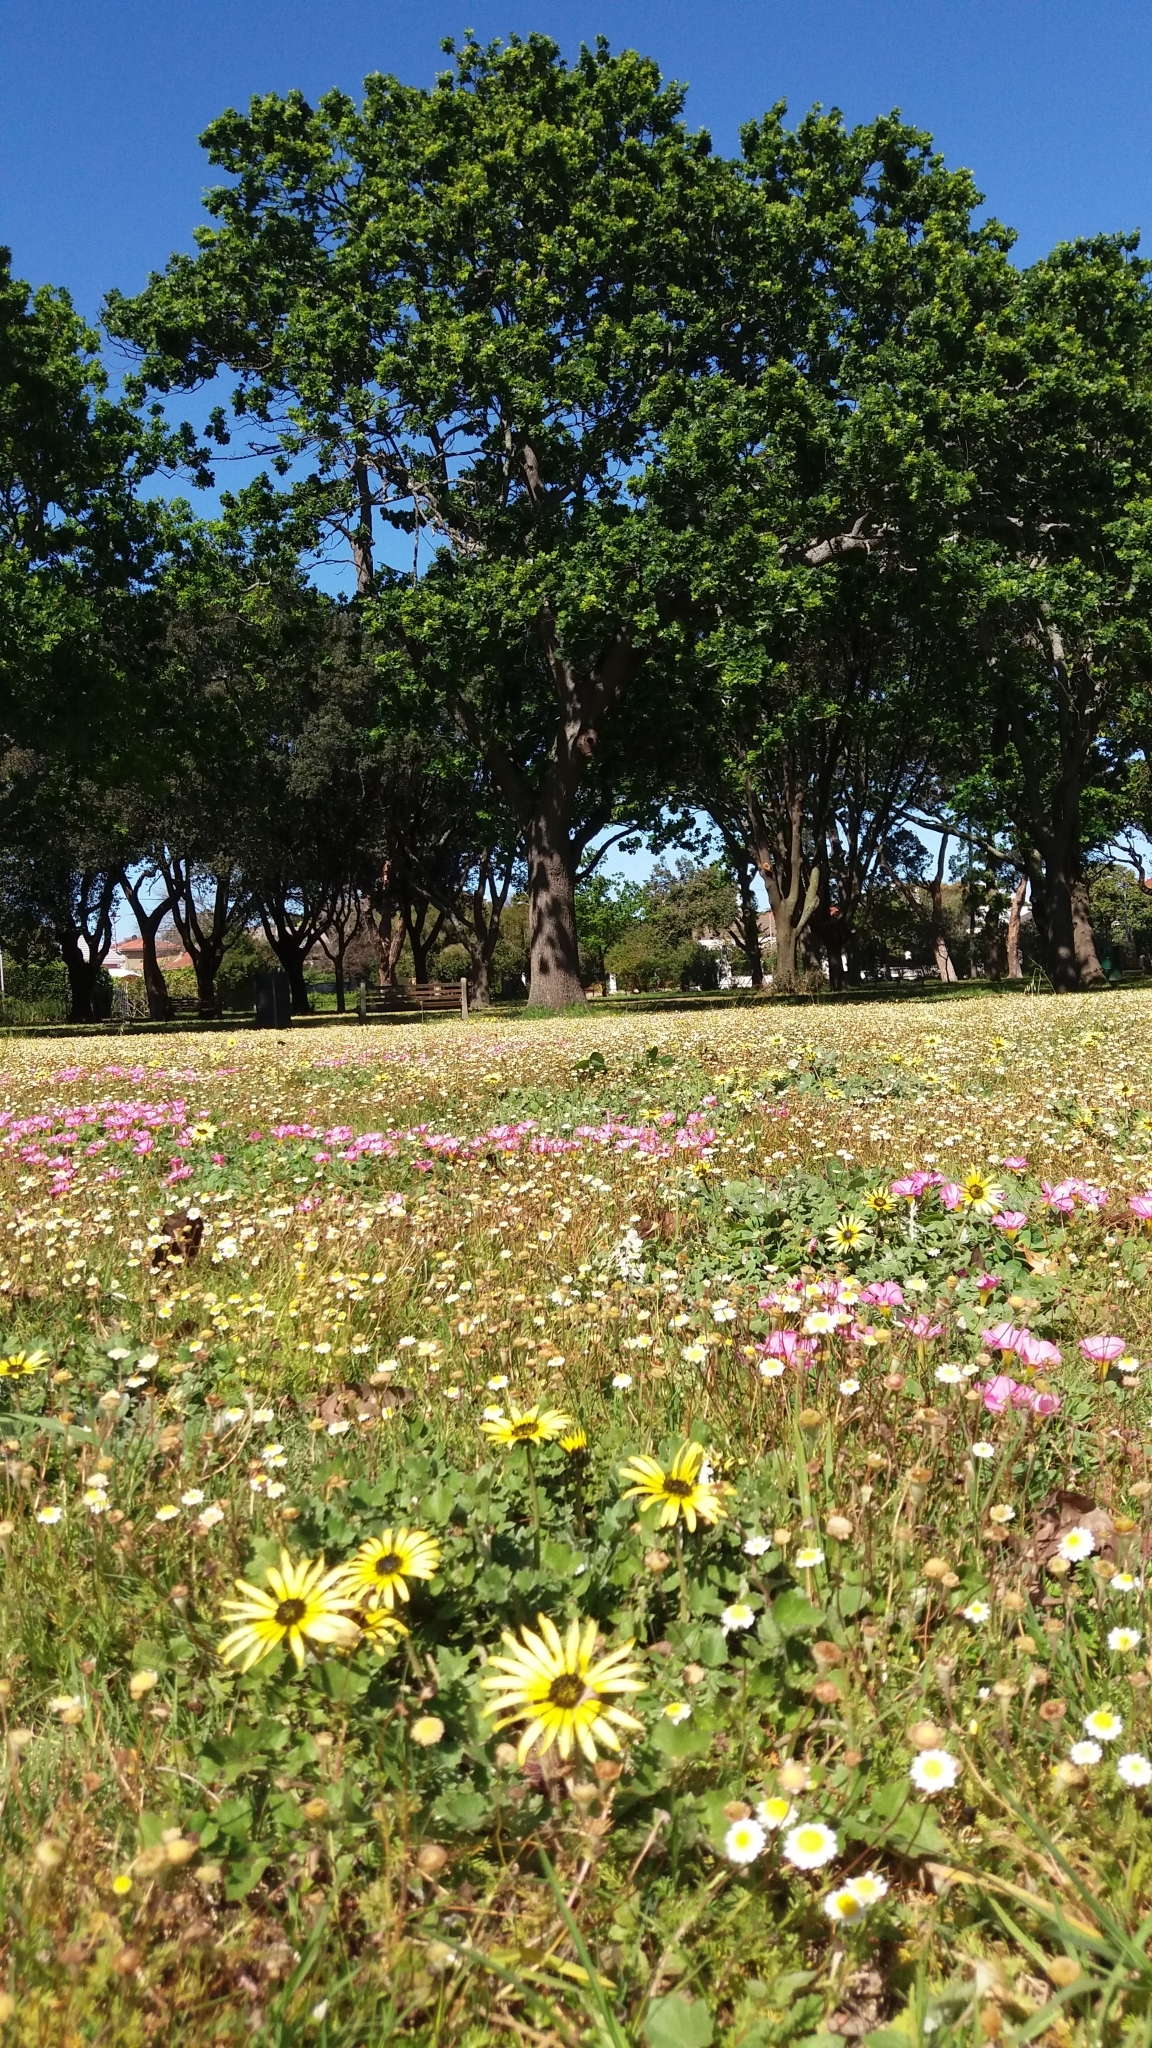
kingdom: Plantae
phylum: Tracheophyta
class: Magnoliopsida
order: Asterales
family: Asteraceae
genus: Arctotheca
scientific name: Arctotheca calendula
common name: Capeweed
